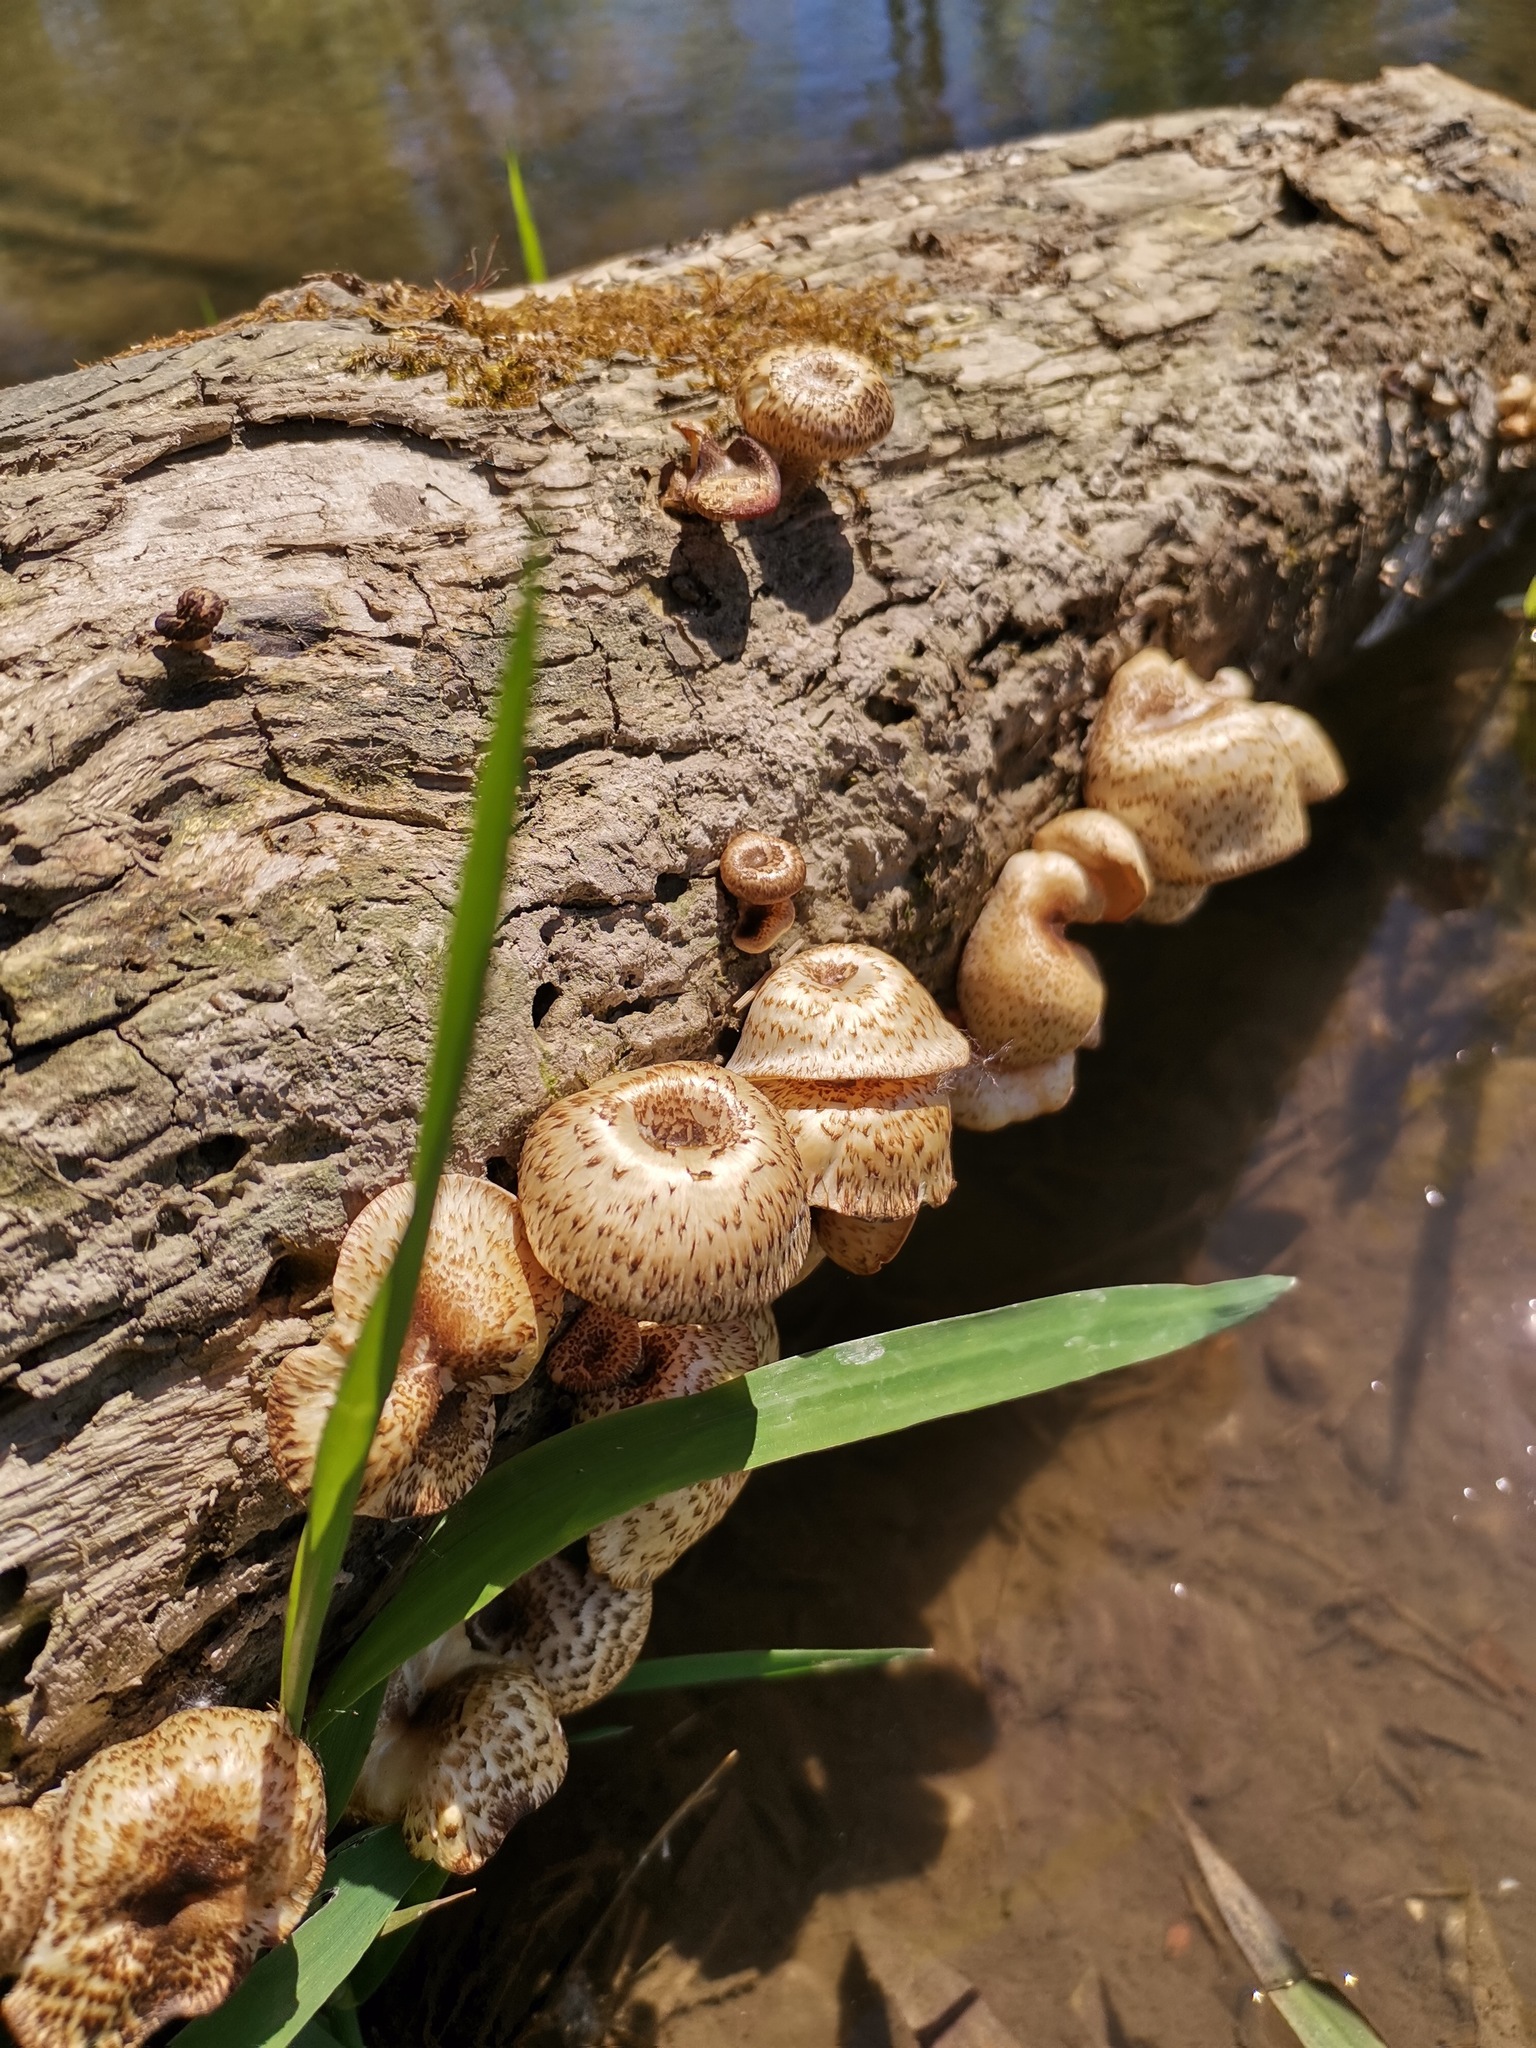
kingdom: Fungi
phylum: Basidiomycota
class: Agaricomycetes
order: Polyporales
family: Polyporaceae
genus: Lentinus
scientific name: Lentinus tigrinus
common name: Tiger sawgill
